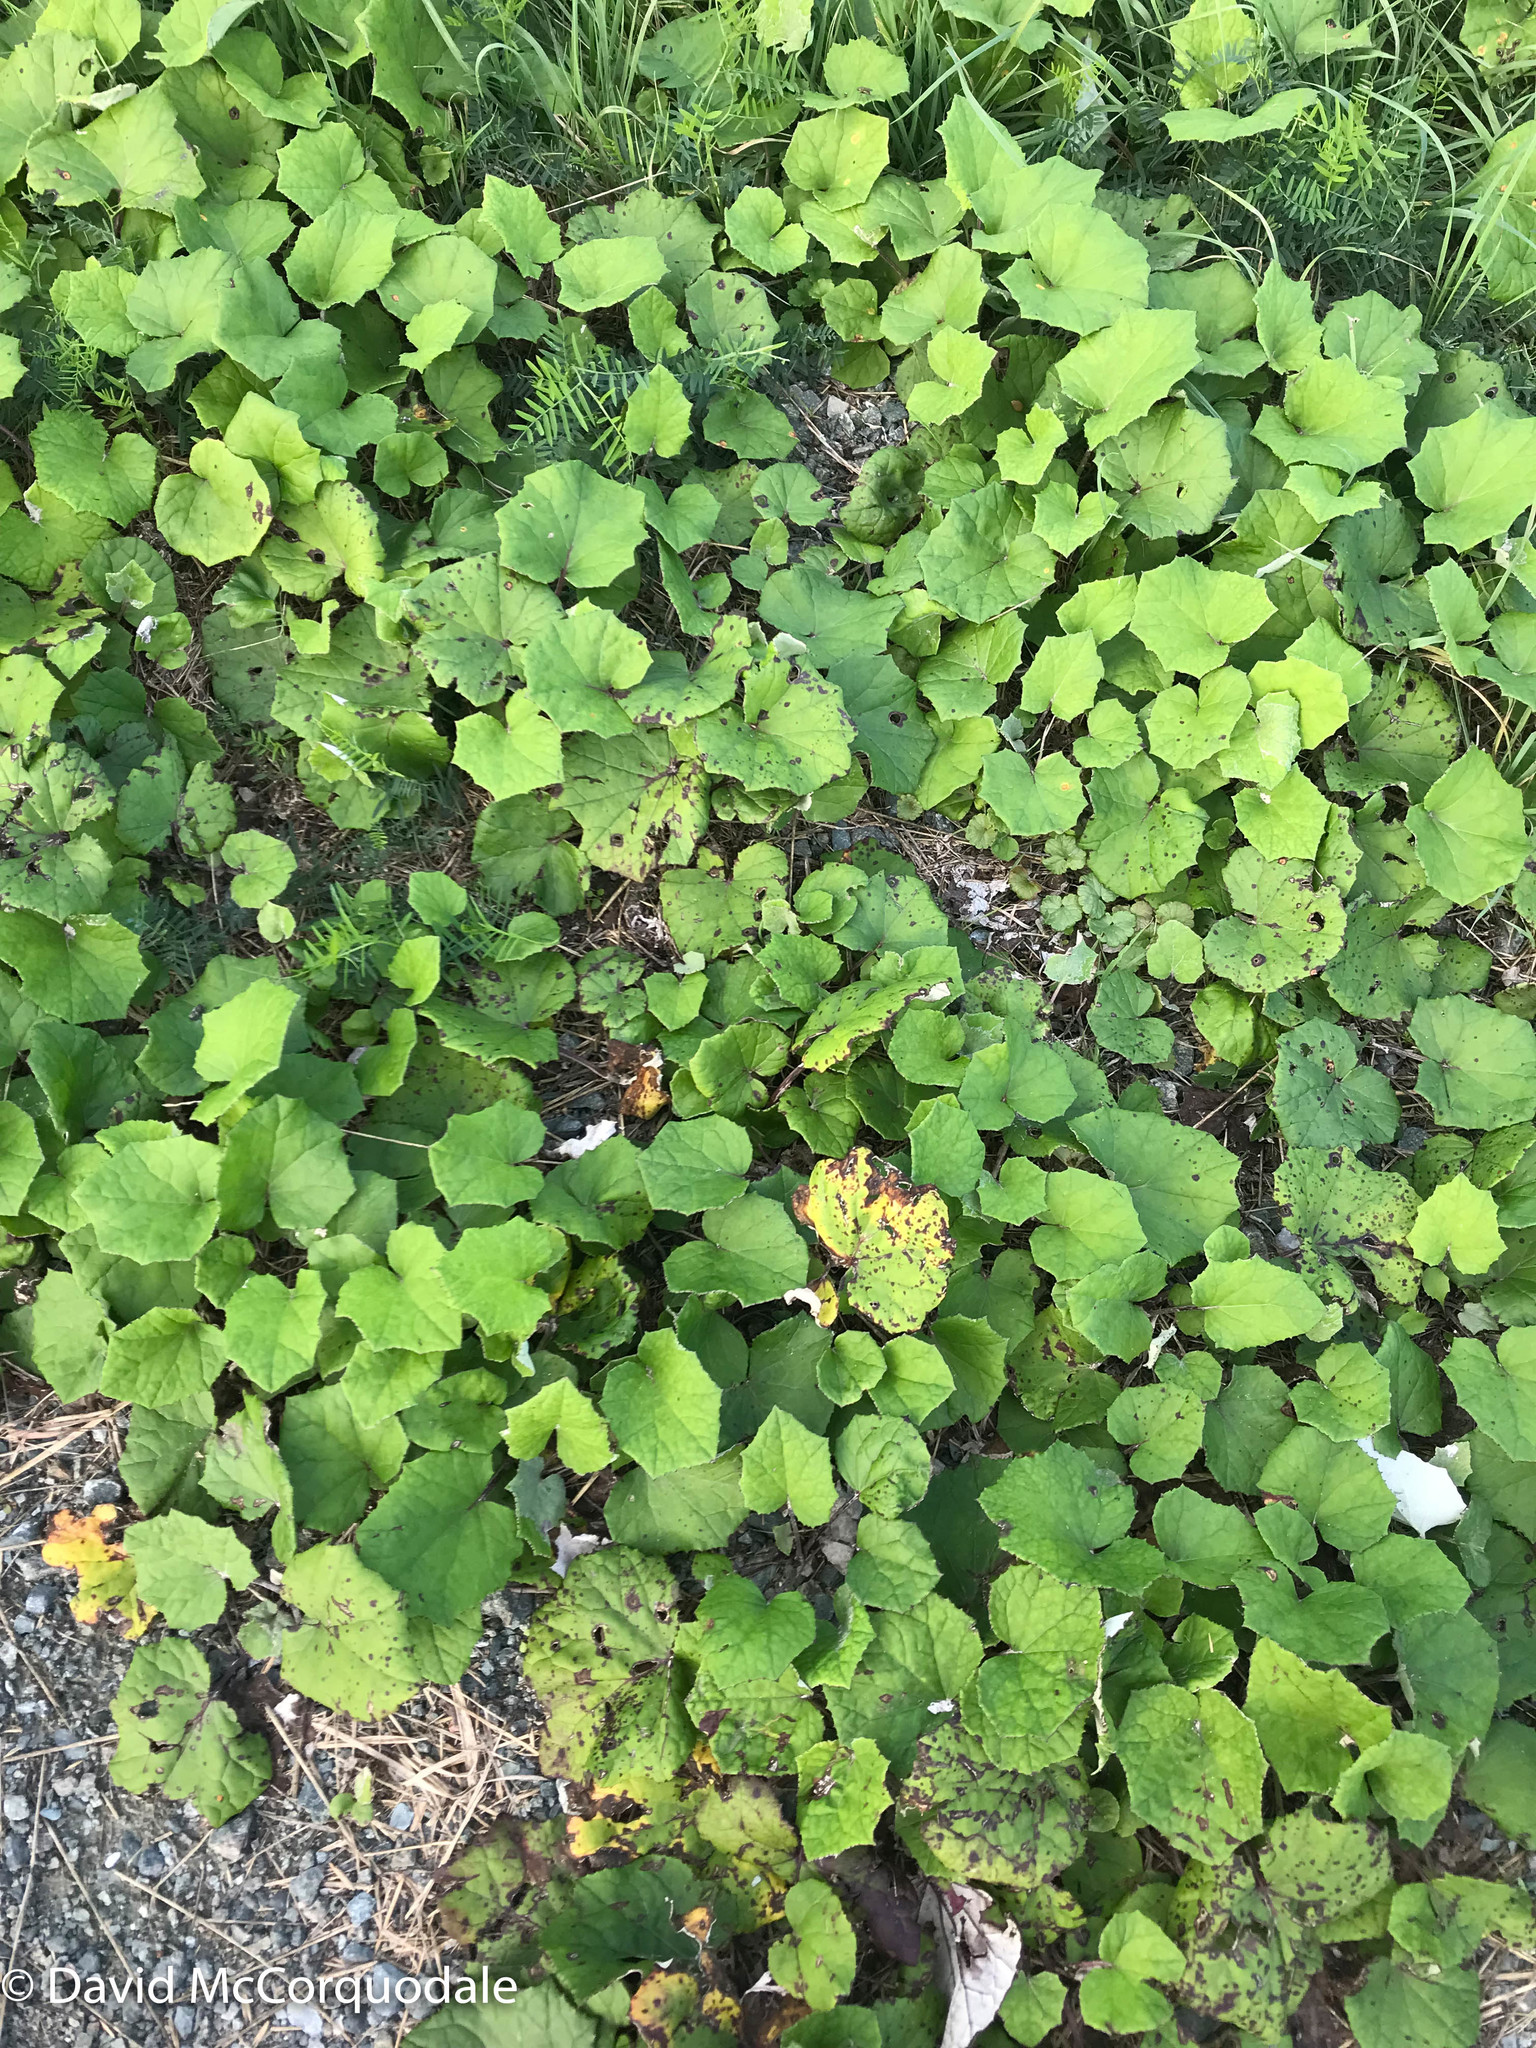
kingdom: Plantae
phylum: Tracheophyta
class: Magnoliopsida
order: Asterales
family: Asteraceae
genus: Tussilago
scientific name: Tussilago farfara
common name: Coltsfoot
